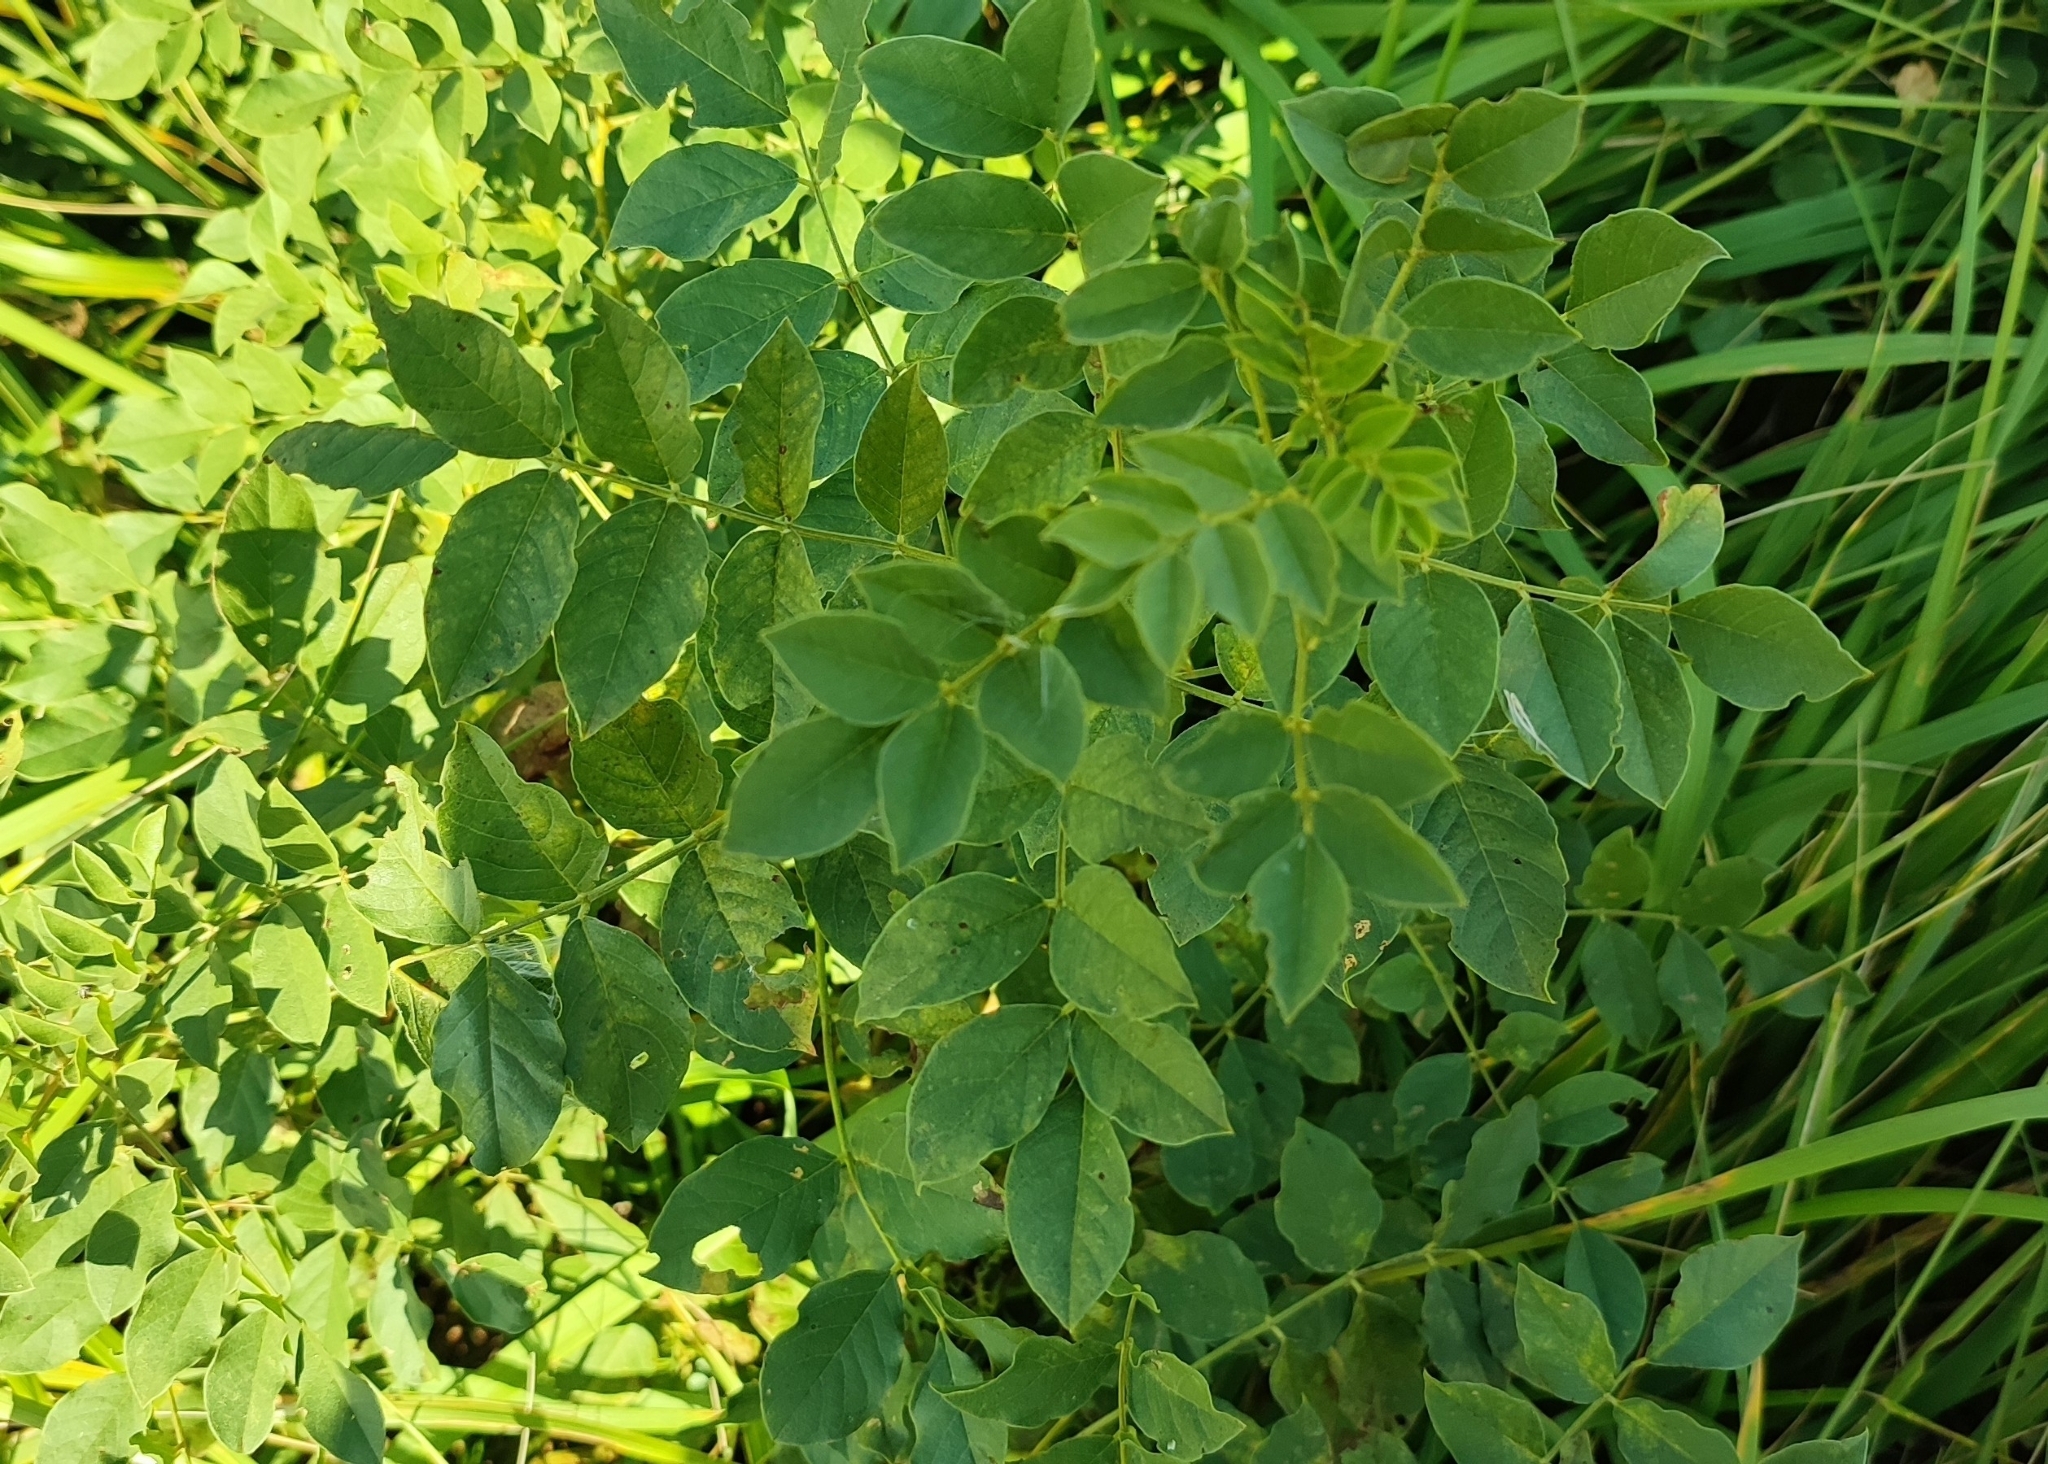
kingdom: Plantae
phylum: Tracheophyta
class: Magnoliopsida
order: Fabales
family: Fabaceae
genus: Glycyrrhiza
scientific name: Glycyrrhiza uralensis
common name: Chinese licorice
